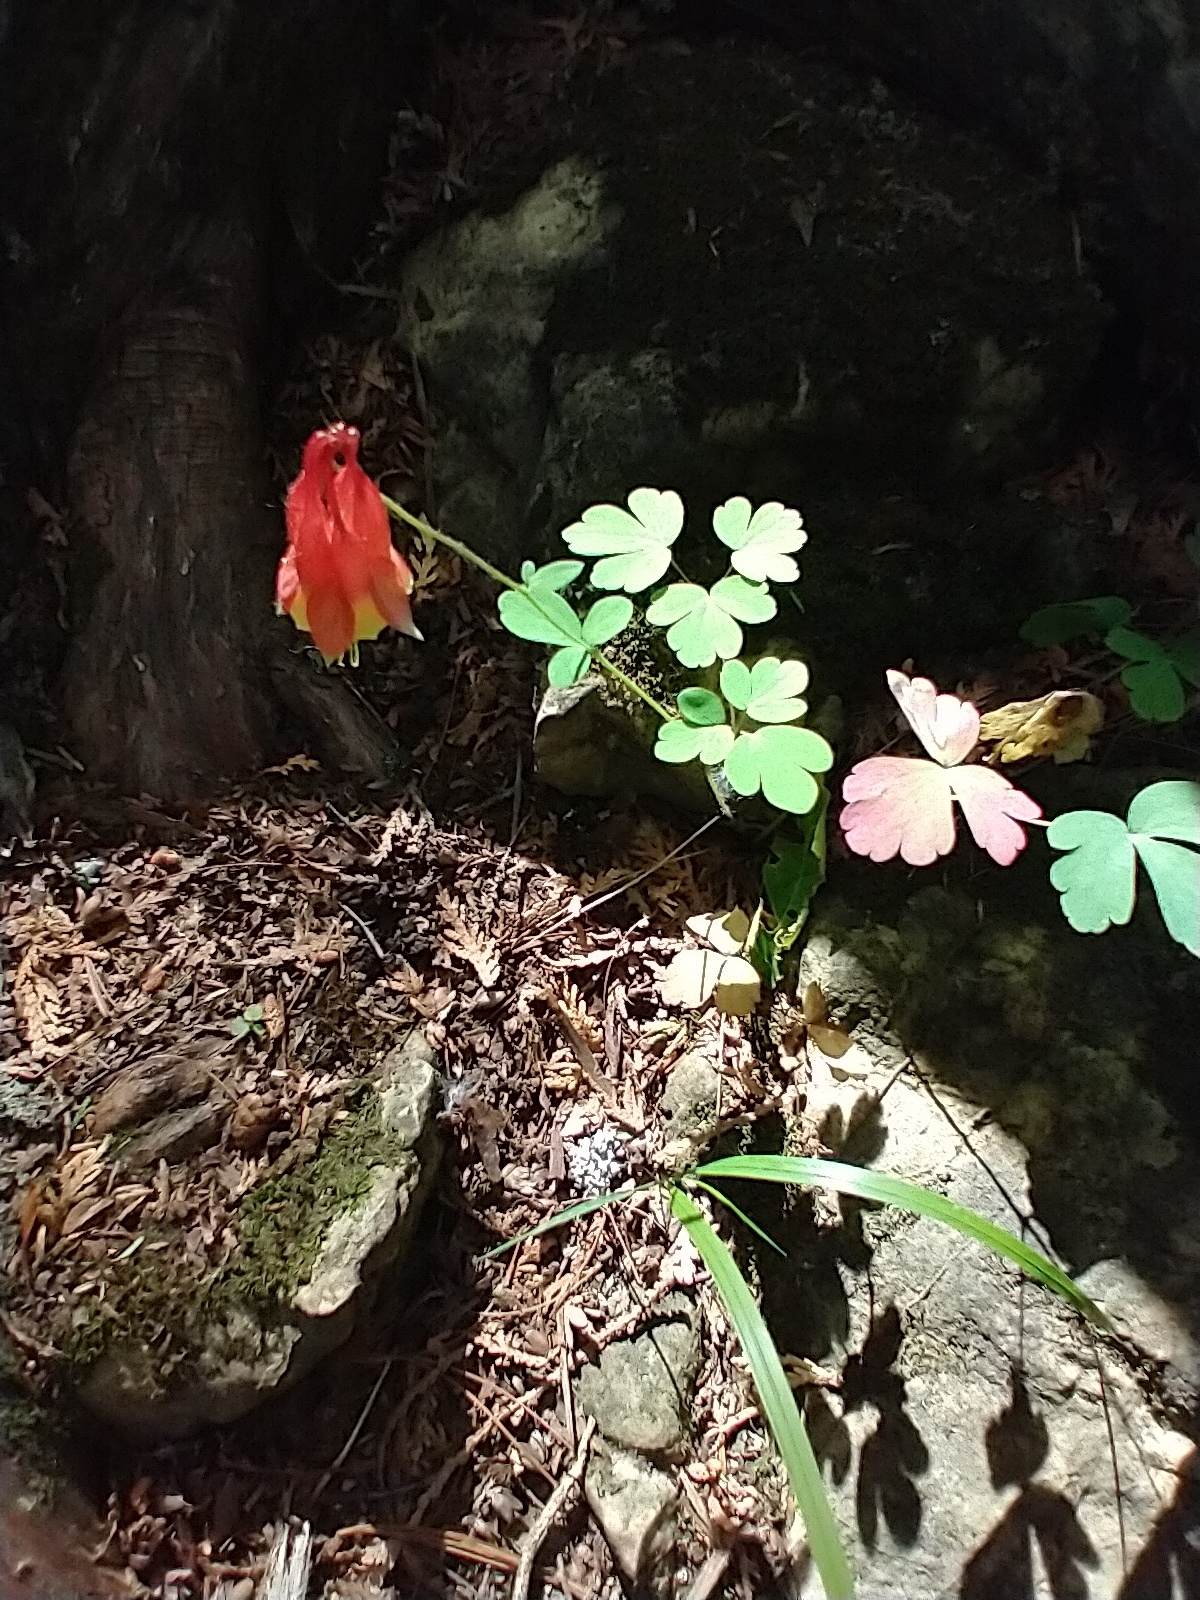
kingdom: Plantae
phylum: Tracheophyta
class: Magnoliopsida
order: Ranunculales
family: Ranunculaceae
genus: Aquilegia
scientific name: Aquilegia canadensis
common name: American columbine
